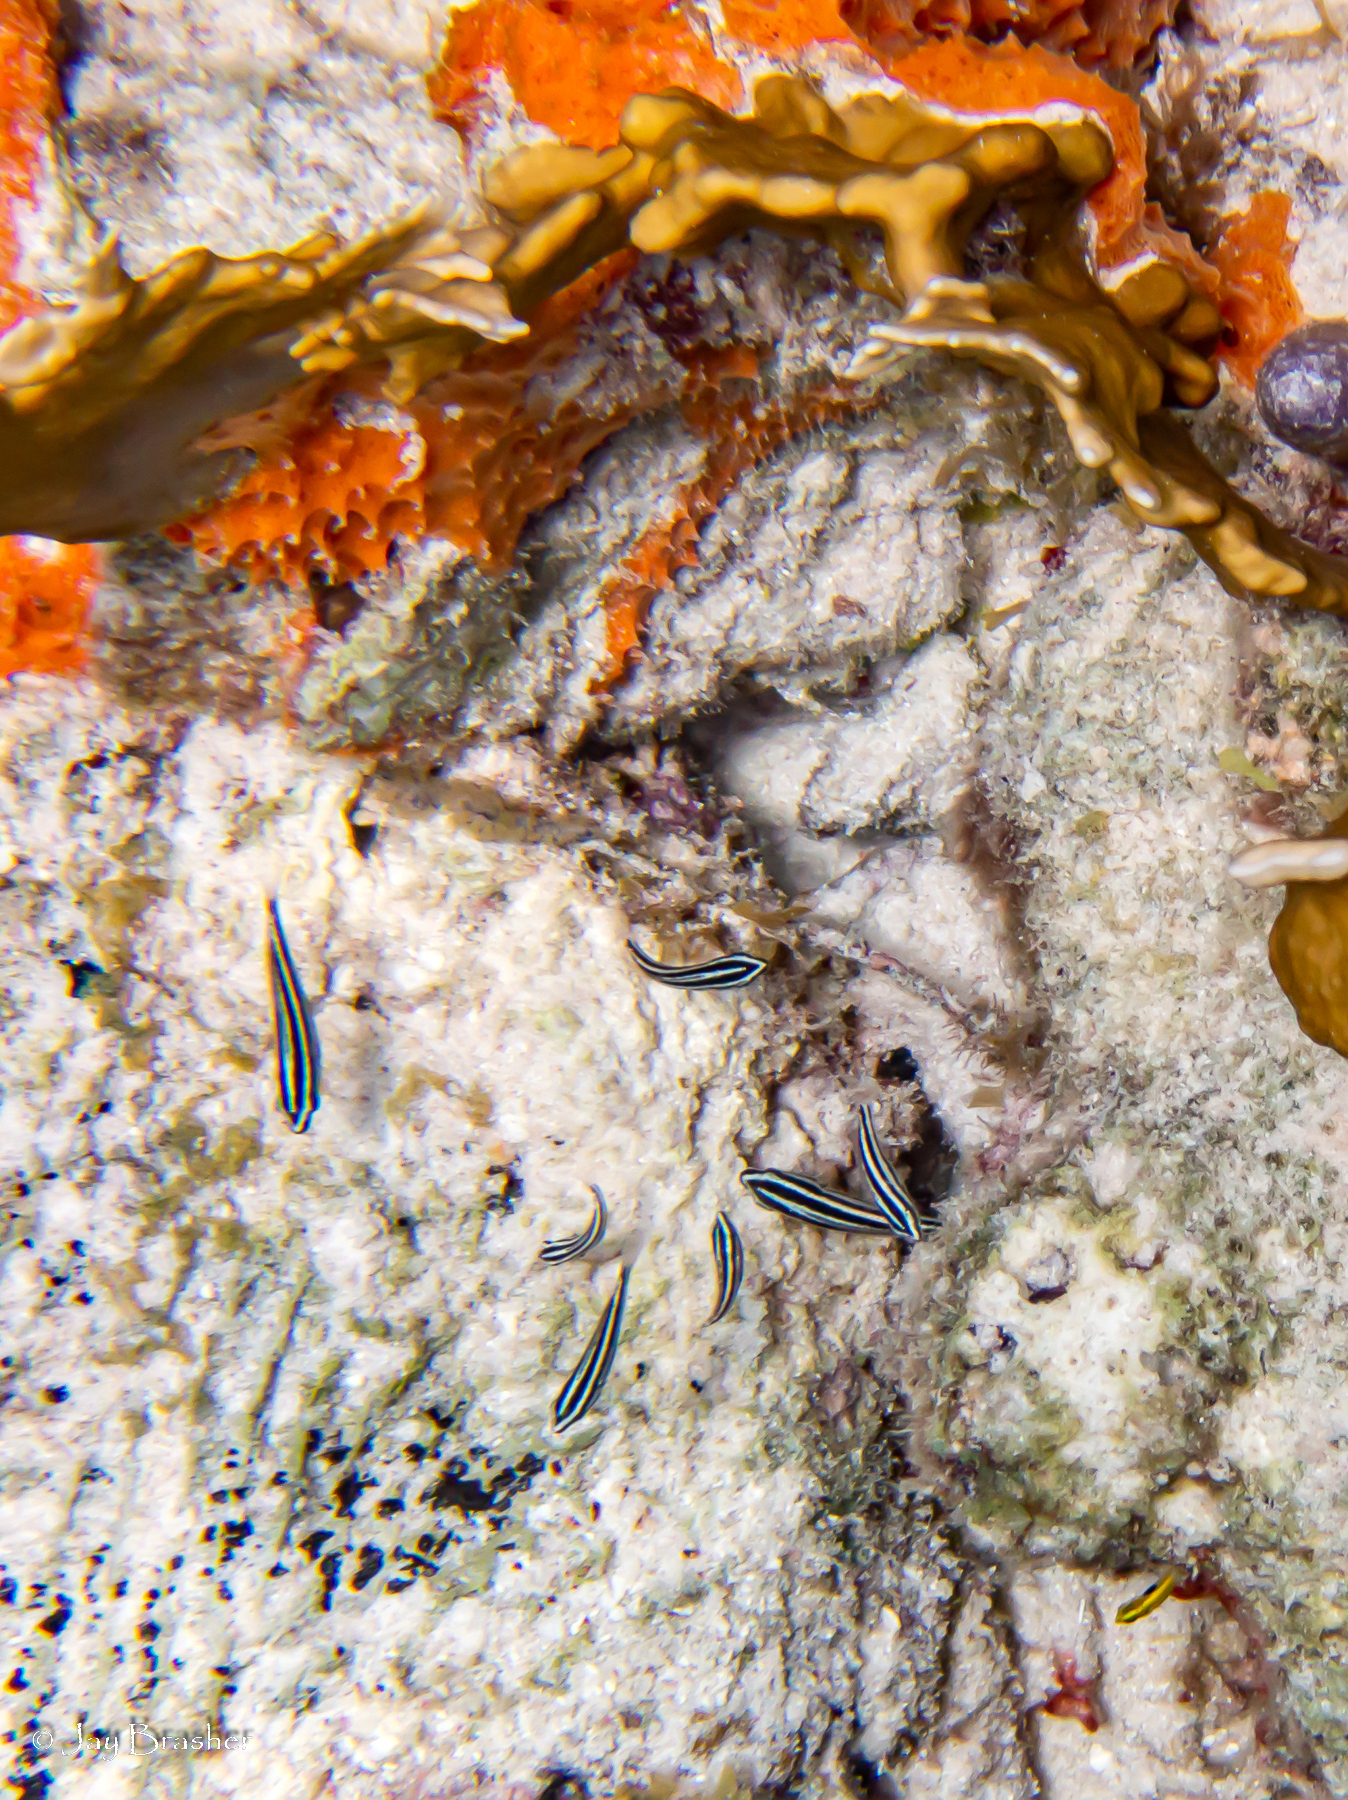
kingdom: Animalia
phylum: Porifera
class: Demospongiae
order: Scopalinida
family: Scopalinidae
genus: Scopalina
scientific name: Scopalina ruetzleri
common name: Orange lumpy encrusting sponge
